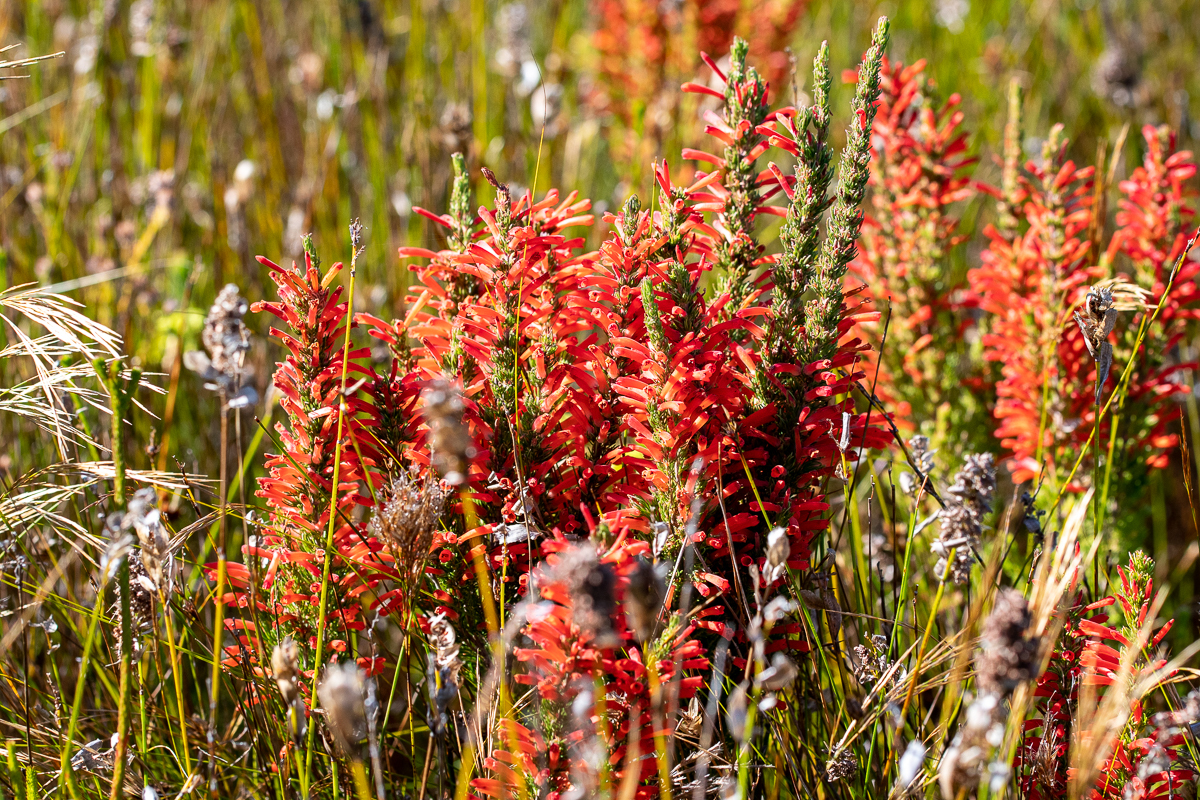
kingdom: Plantae
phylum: Tracheophyta
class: Magnoliopsida
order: Ericales
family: Ericaceae
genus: Erica
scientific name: Erica pillansii
